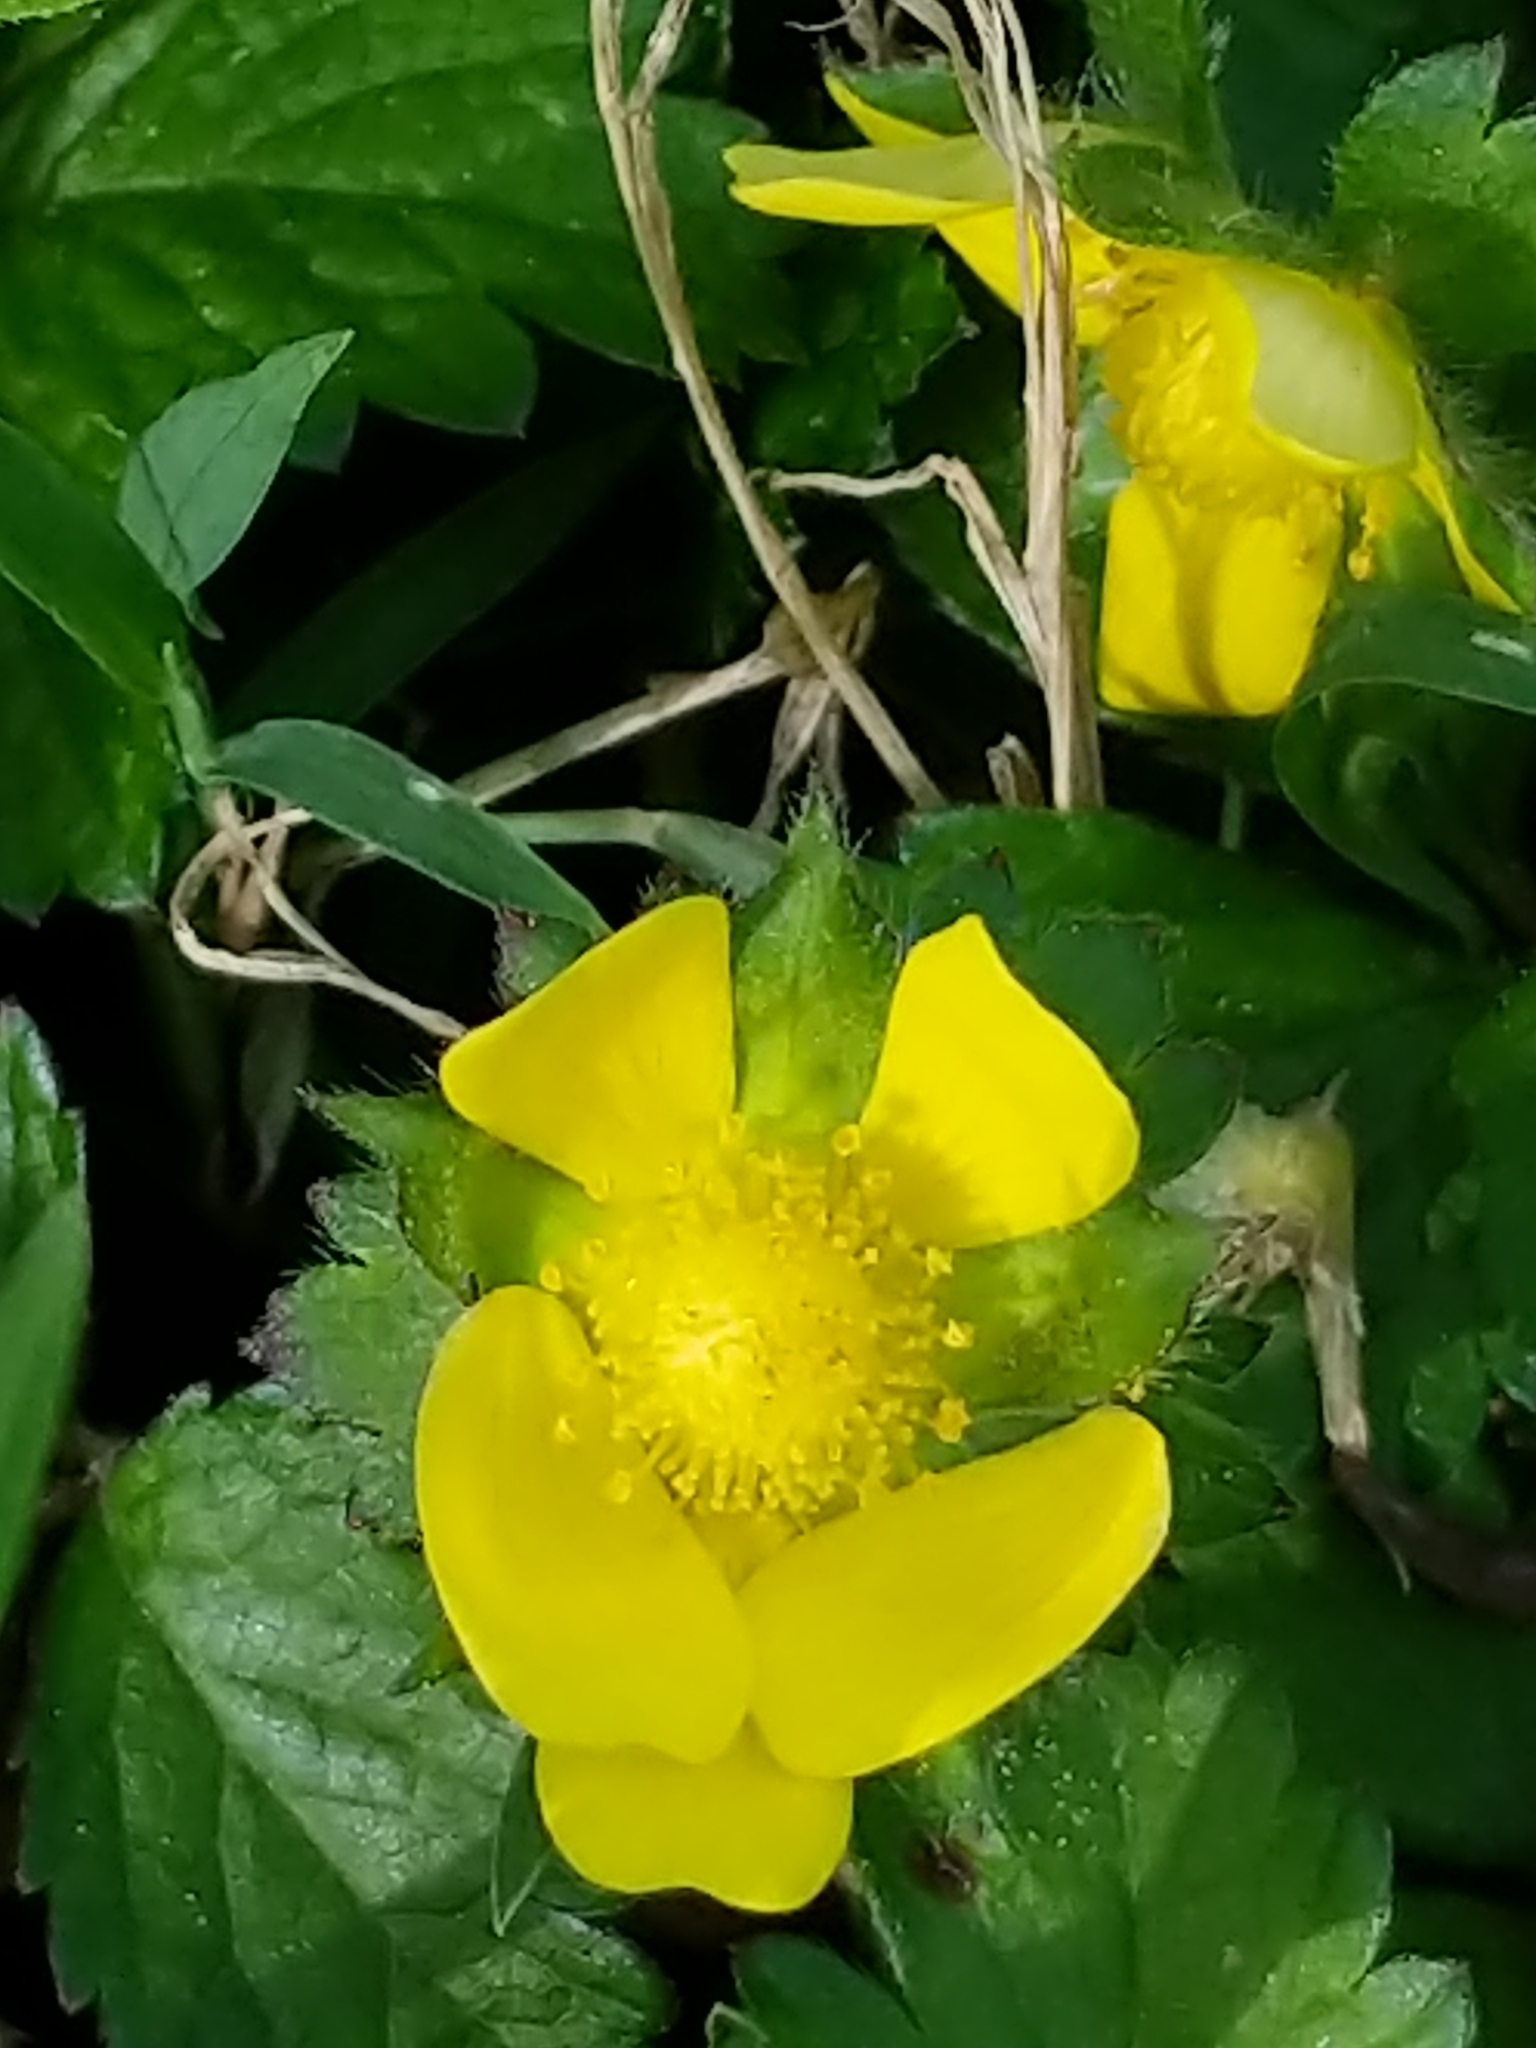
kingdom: Plantae
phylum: Tracheophyta
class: Magnoliopsida
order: Rosales
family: Rosaceae
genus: Potentilla
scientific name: Potentilla indica
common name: Yellow-flowered strawberry
